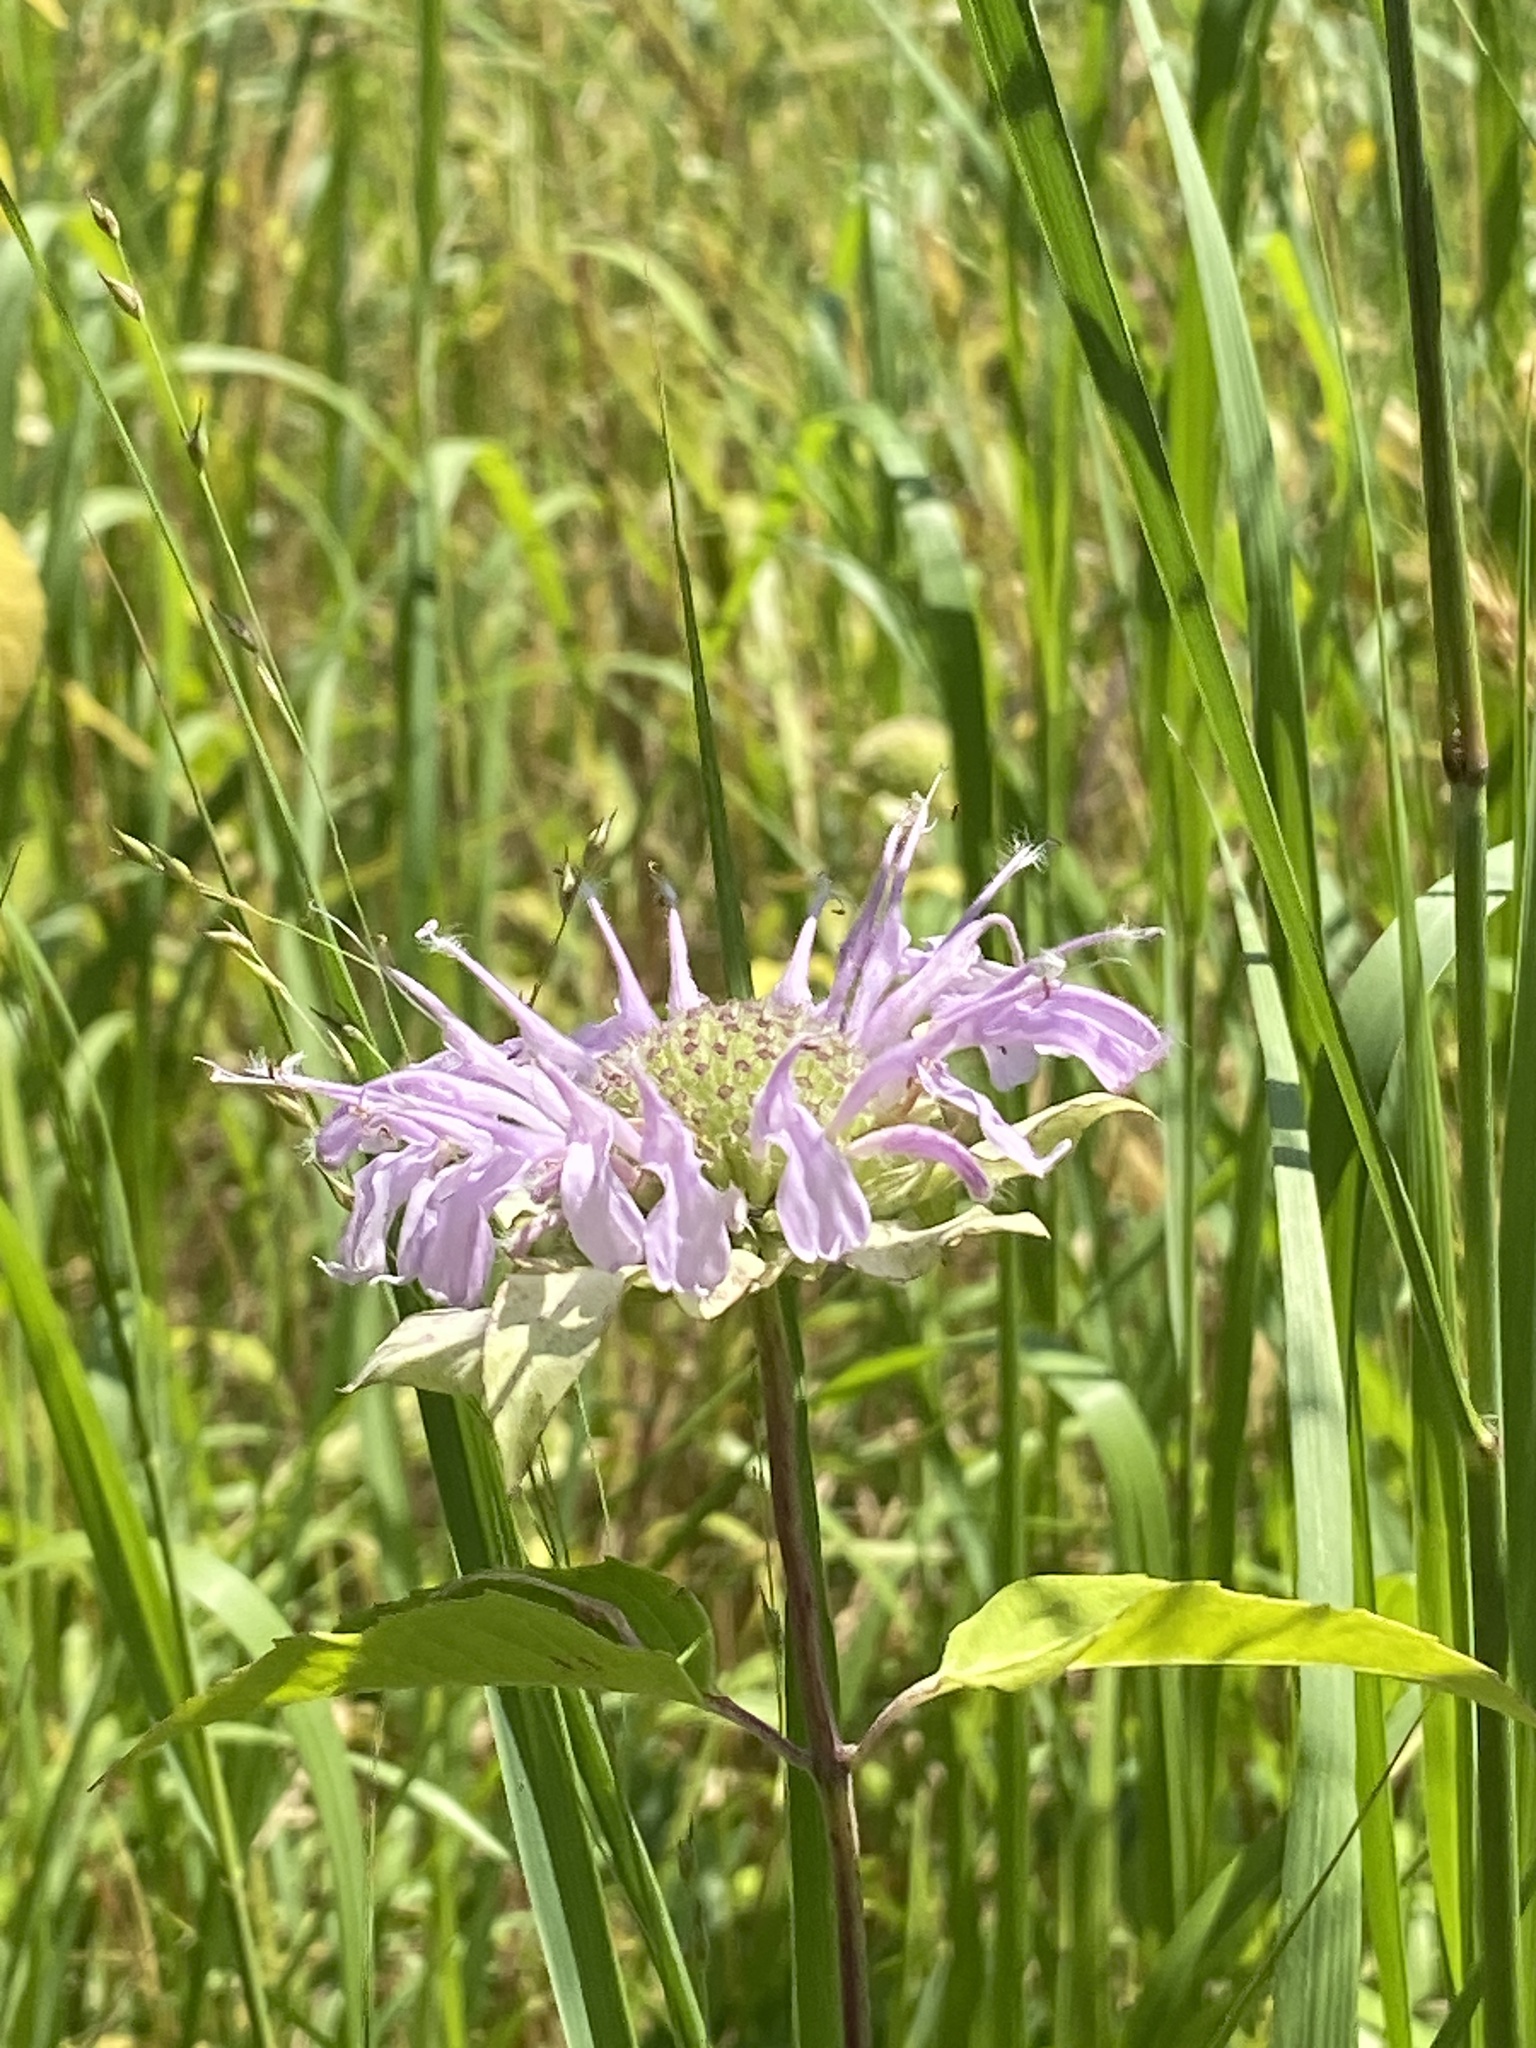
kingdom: Plantae
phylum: Tracheophyta
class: Magnoliopsida
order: Lamiales
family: Lamiaceae
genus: Monarda
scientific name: Monarda fistulosa
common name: Purple beebalm
